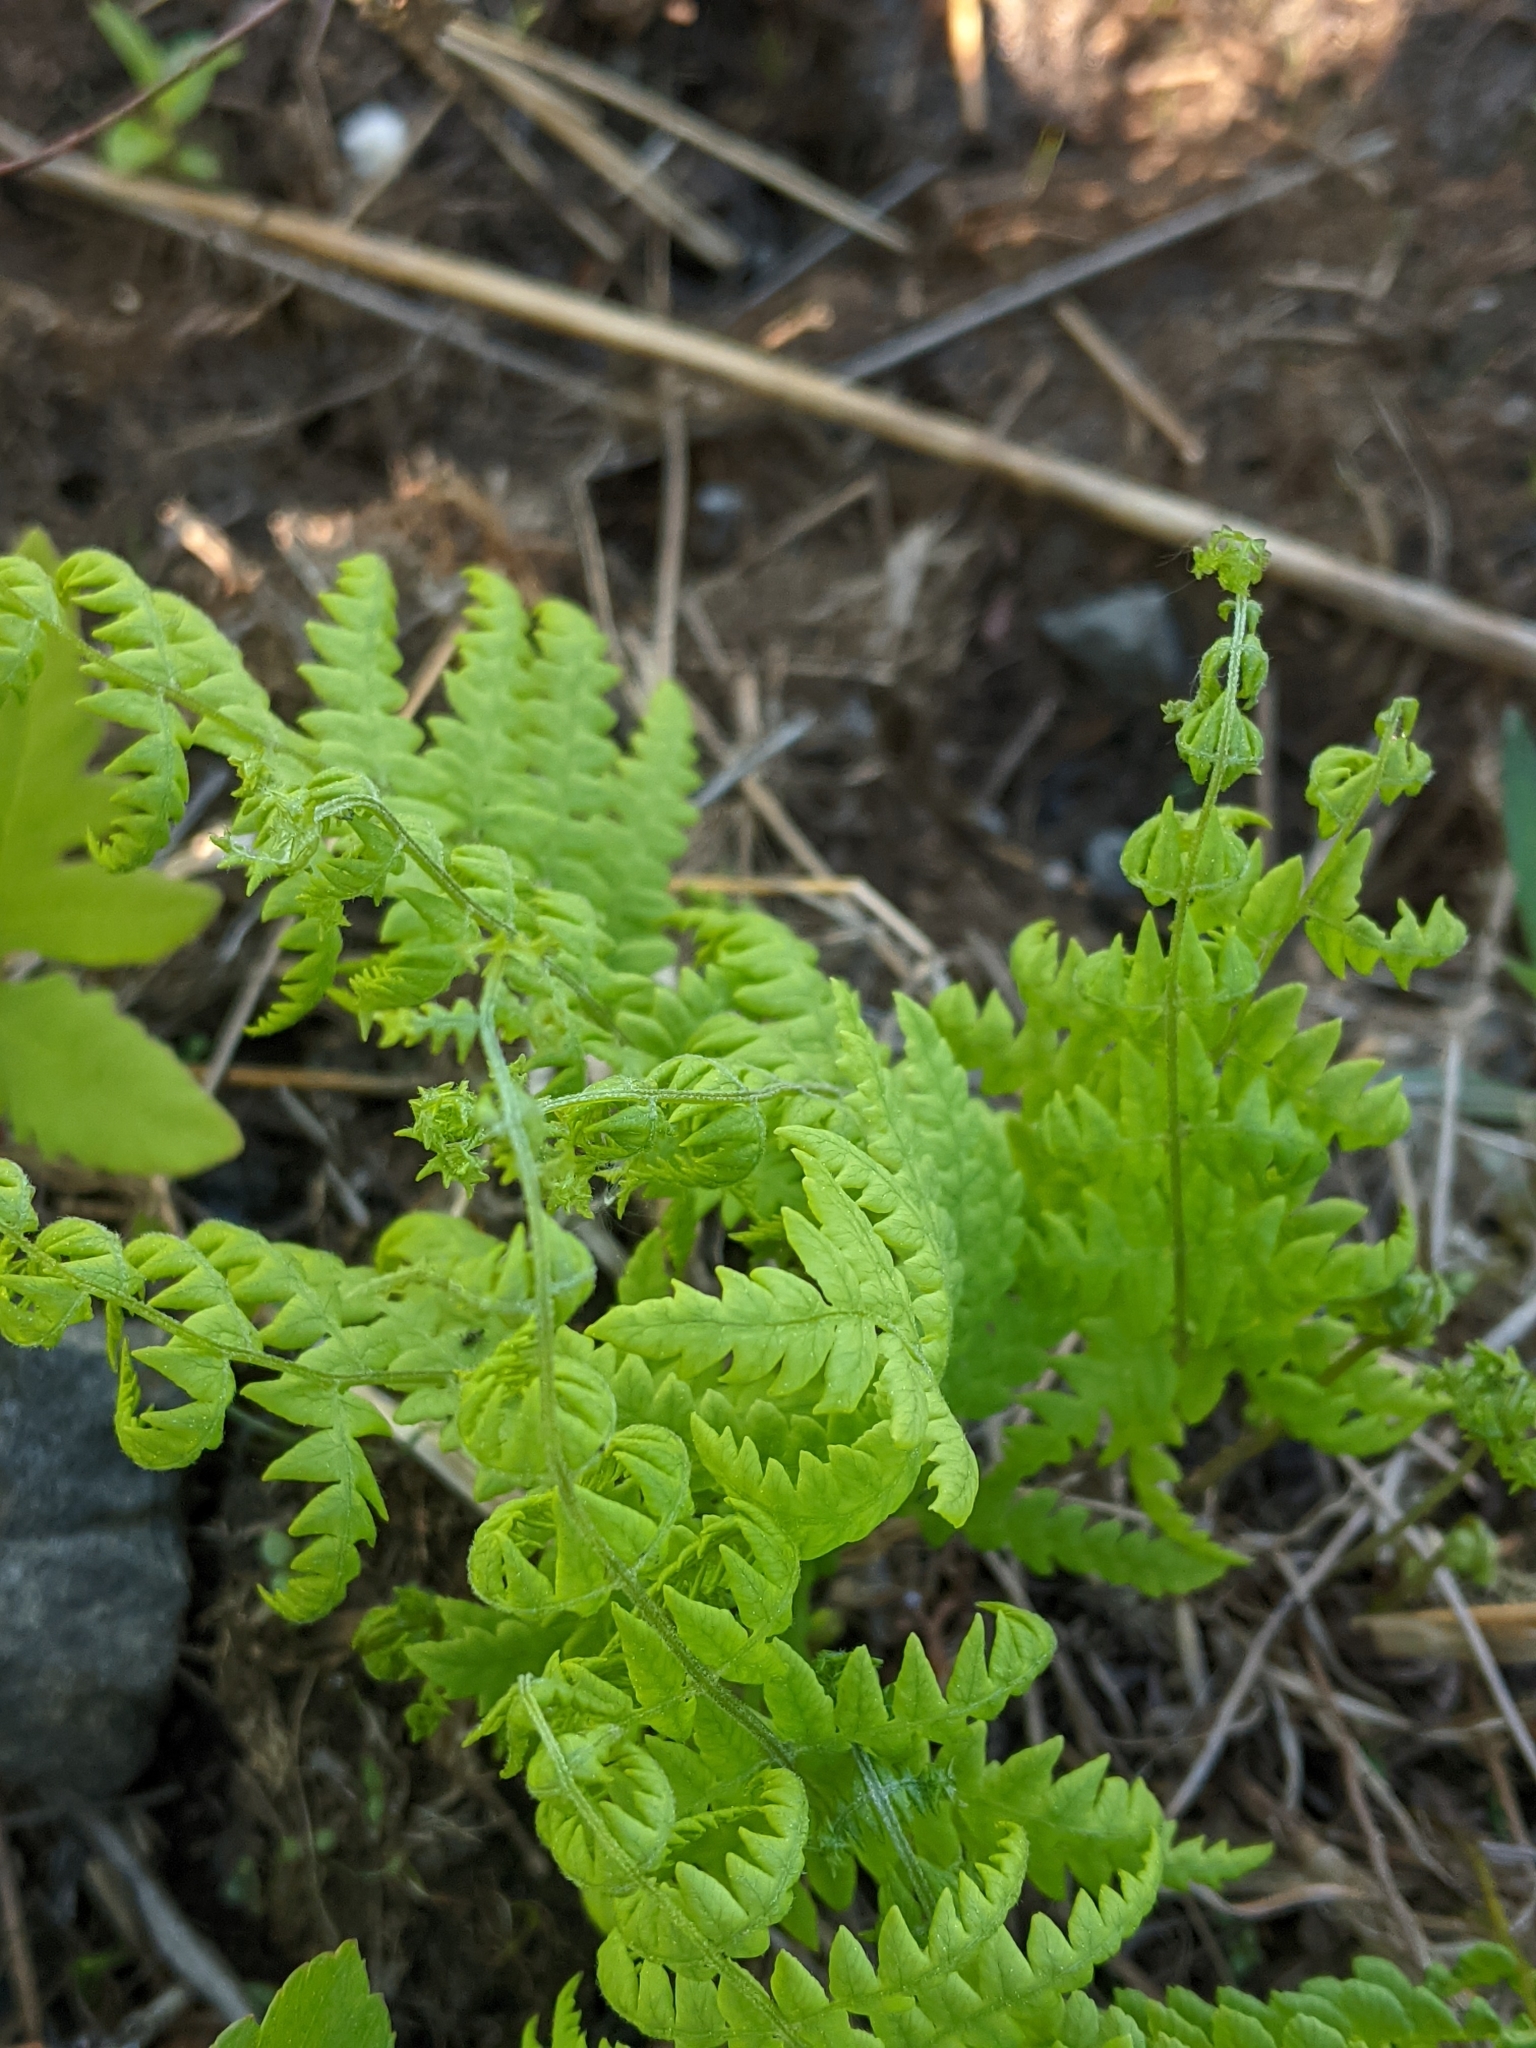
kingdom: Plantae
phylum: Tracheophyta
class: Polypodiopsida
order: Polypodiales
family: Thelypteridaceae
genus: Thelypteris
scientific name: Thelypteris palustris
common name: Marsh fern
